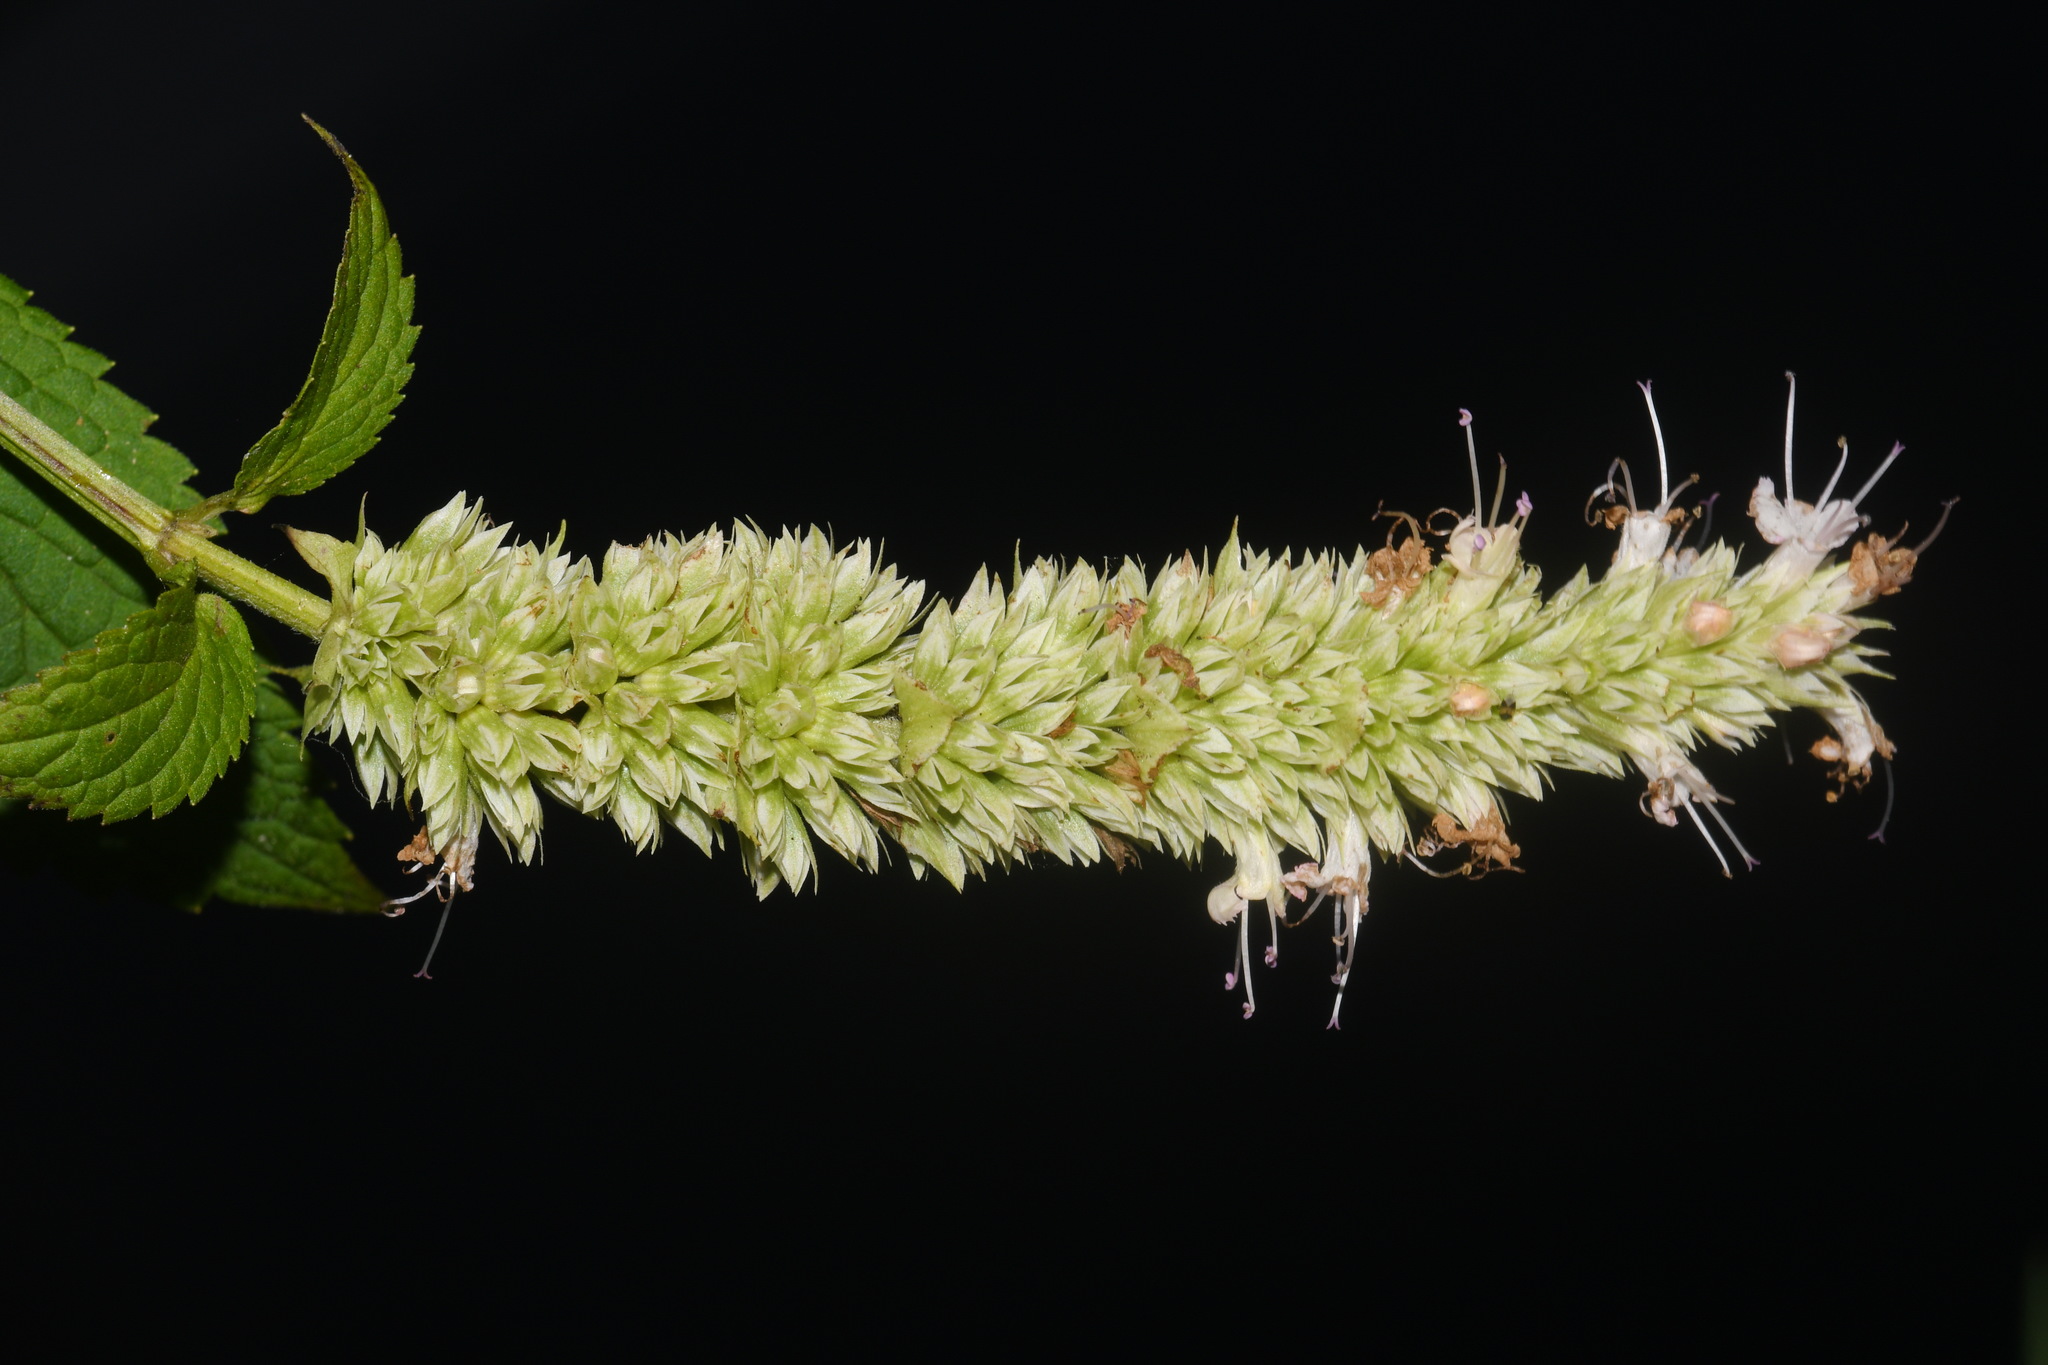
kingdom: Plantae
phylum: Tracheophyta
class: Magnoliopsida
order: Lamiales
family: Lamiaceae
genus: Agastache
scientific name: Agastache scrophulariifolia
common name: Figwort giant hyssop
